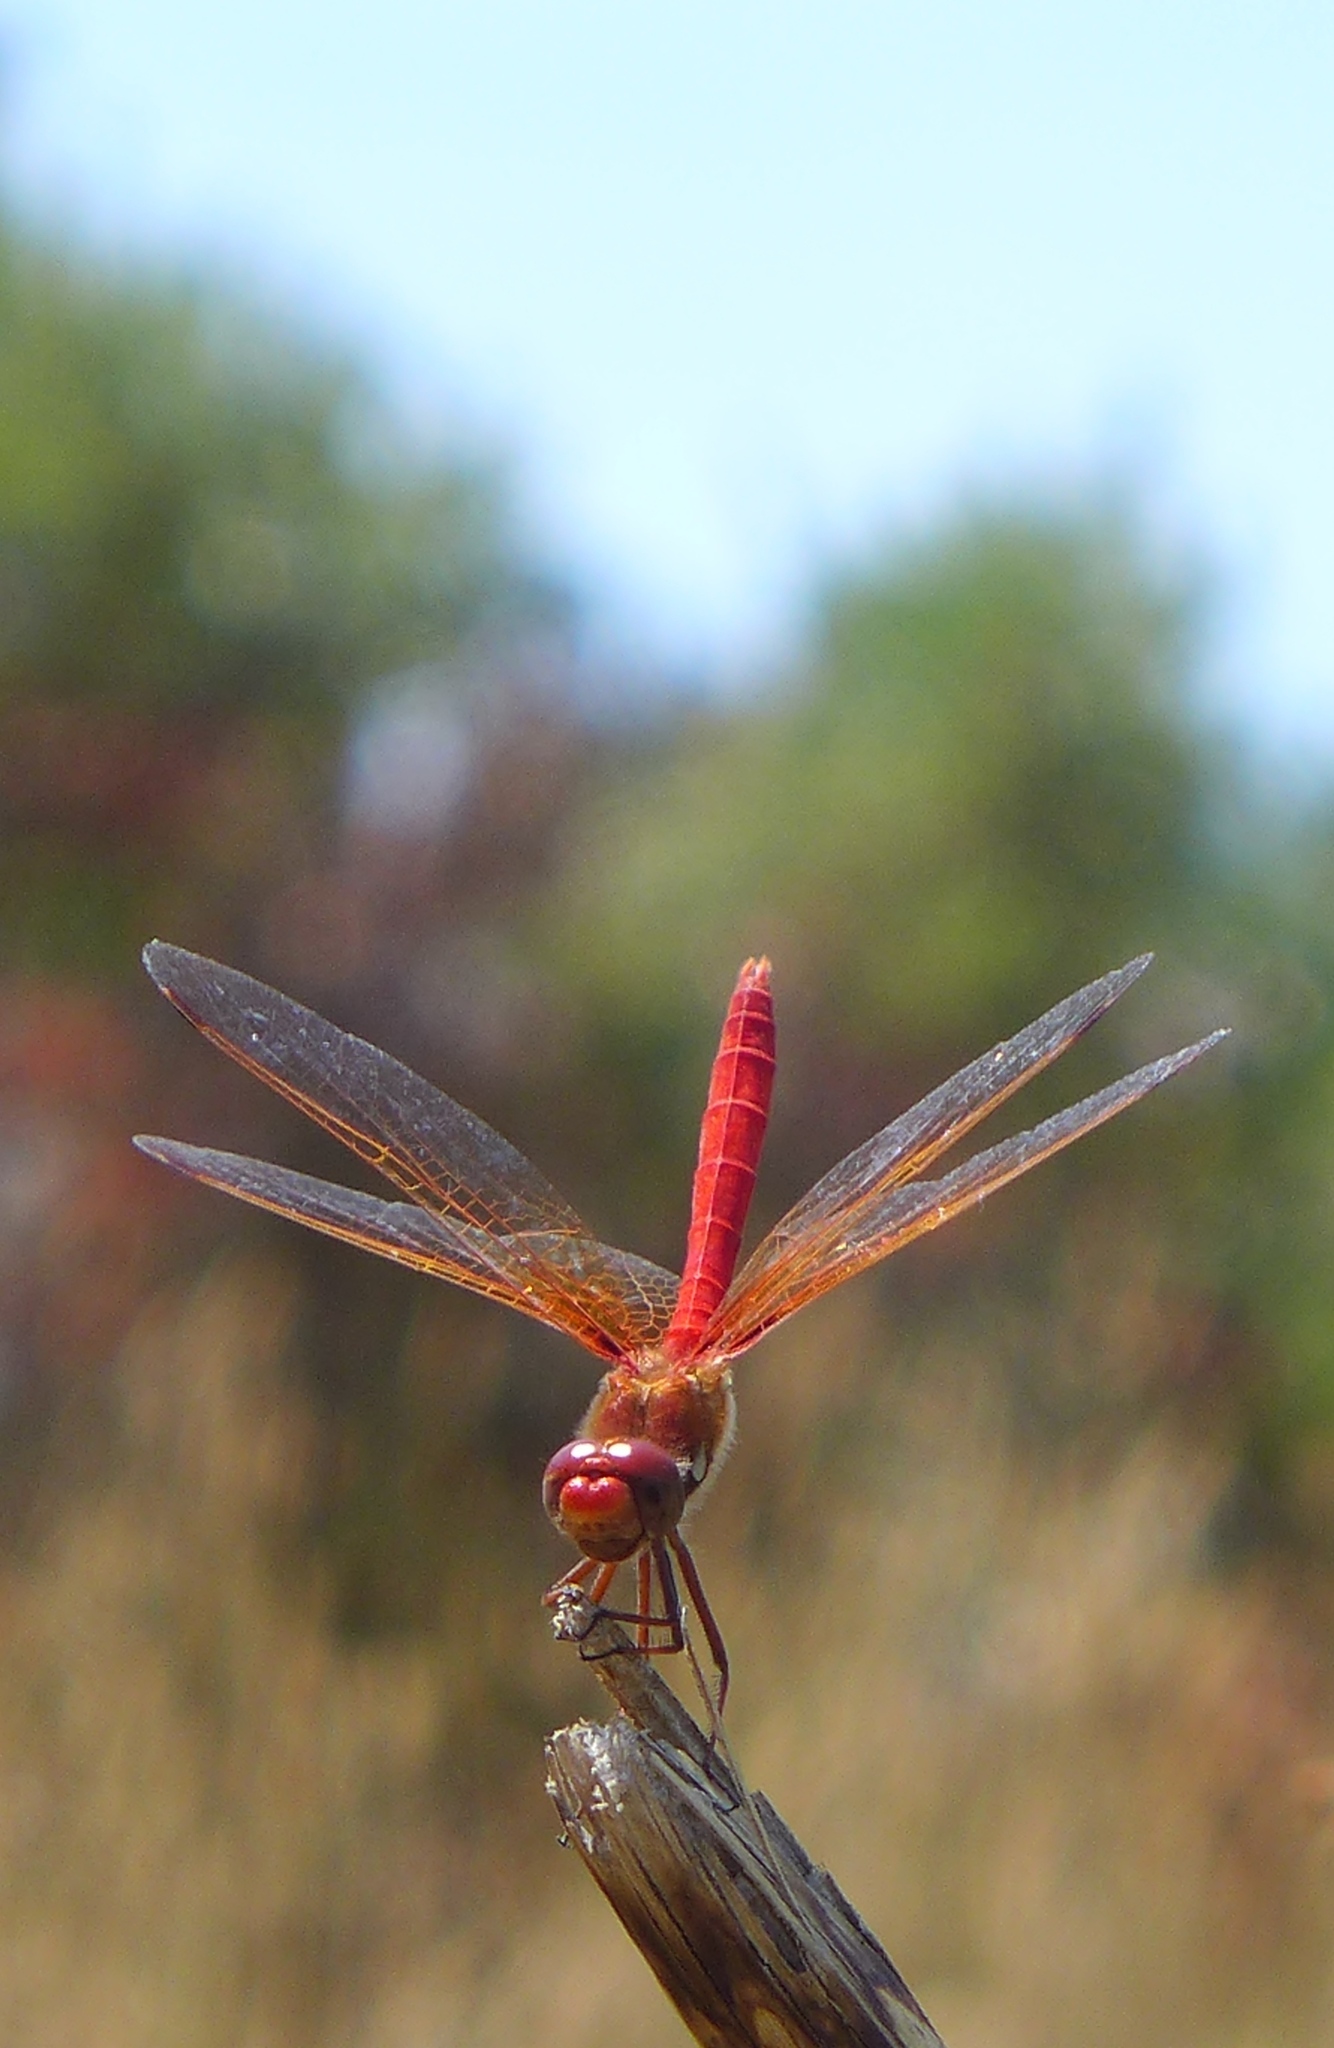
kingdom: Animalia
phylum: Arthropoda
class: Insecta
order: Odonata
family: Libellulidae
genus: Sympetrum
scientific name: Sympetrum illotum
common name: Cardinal meadowhawk
